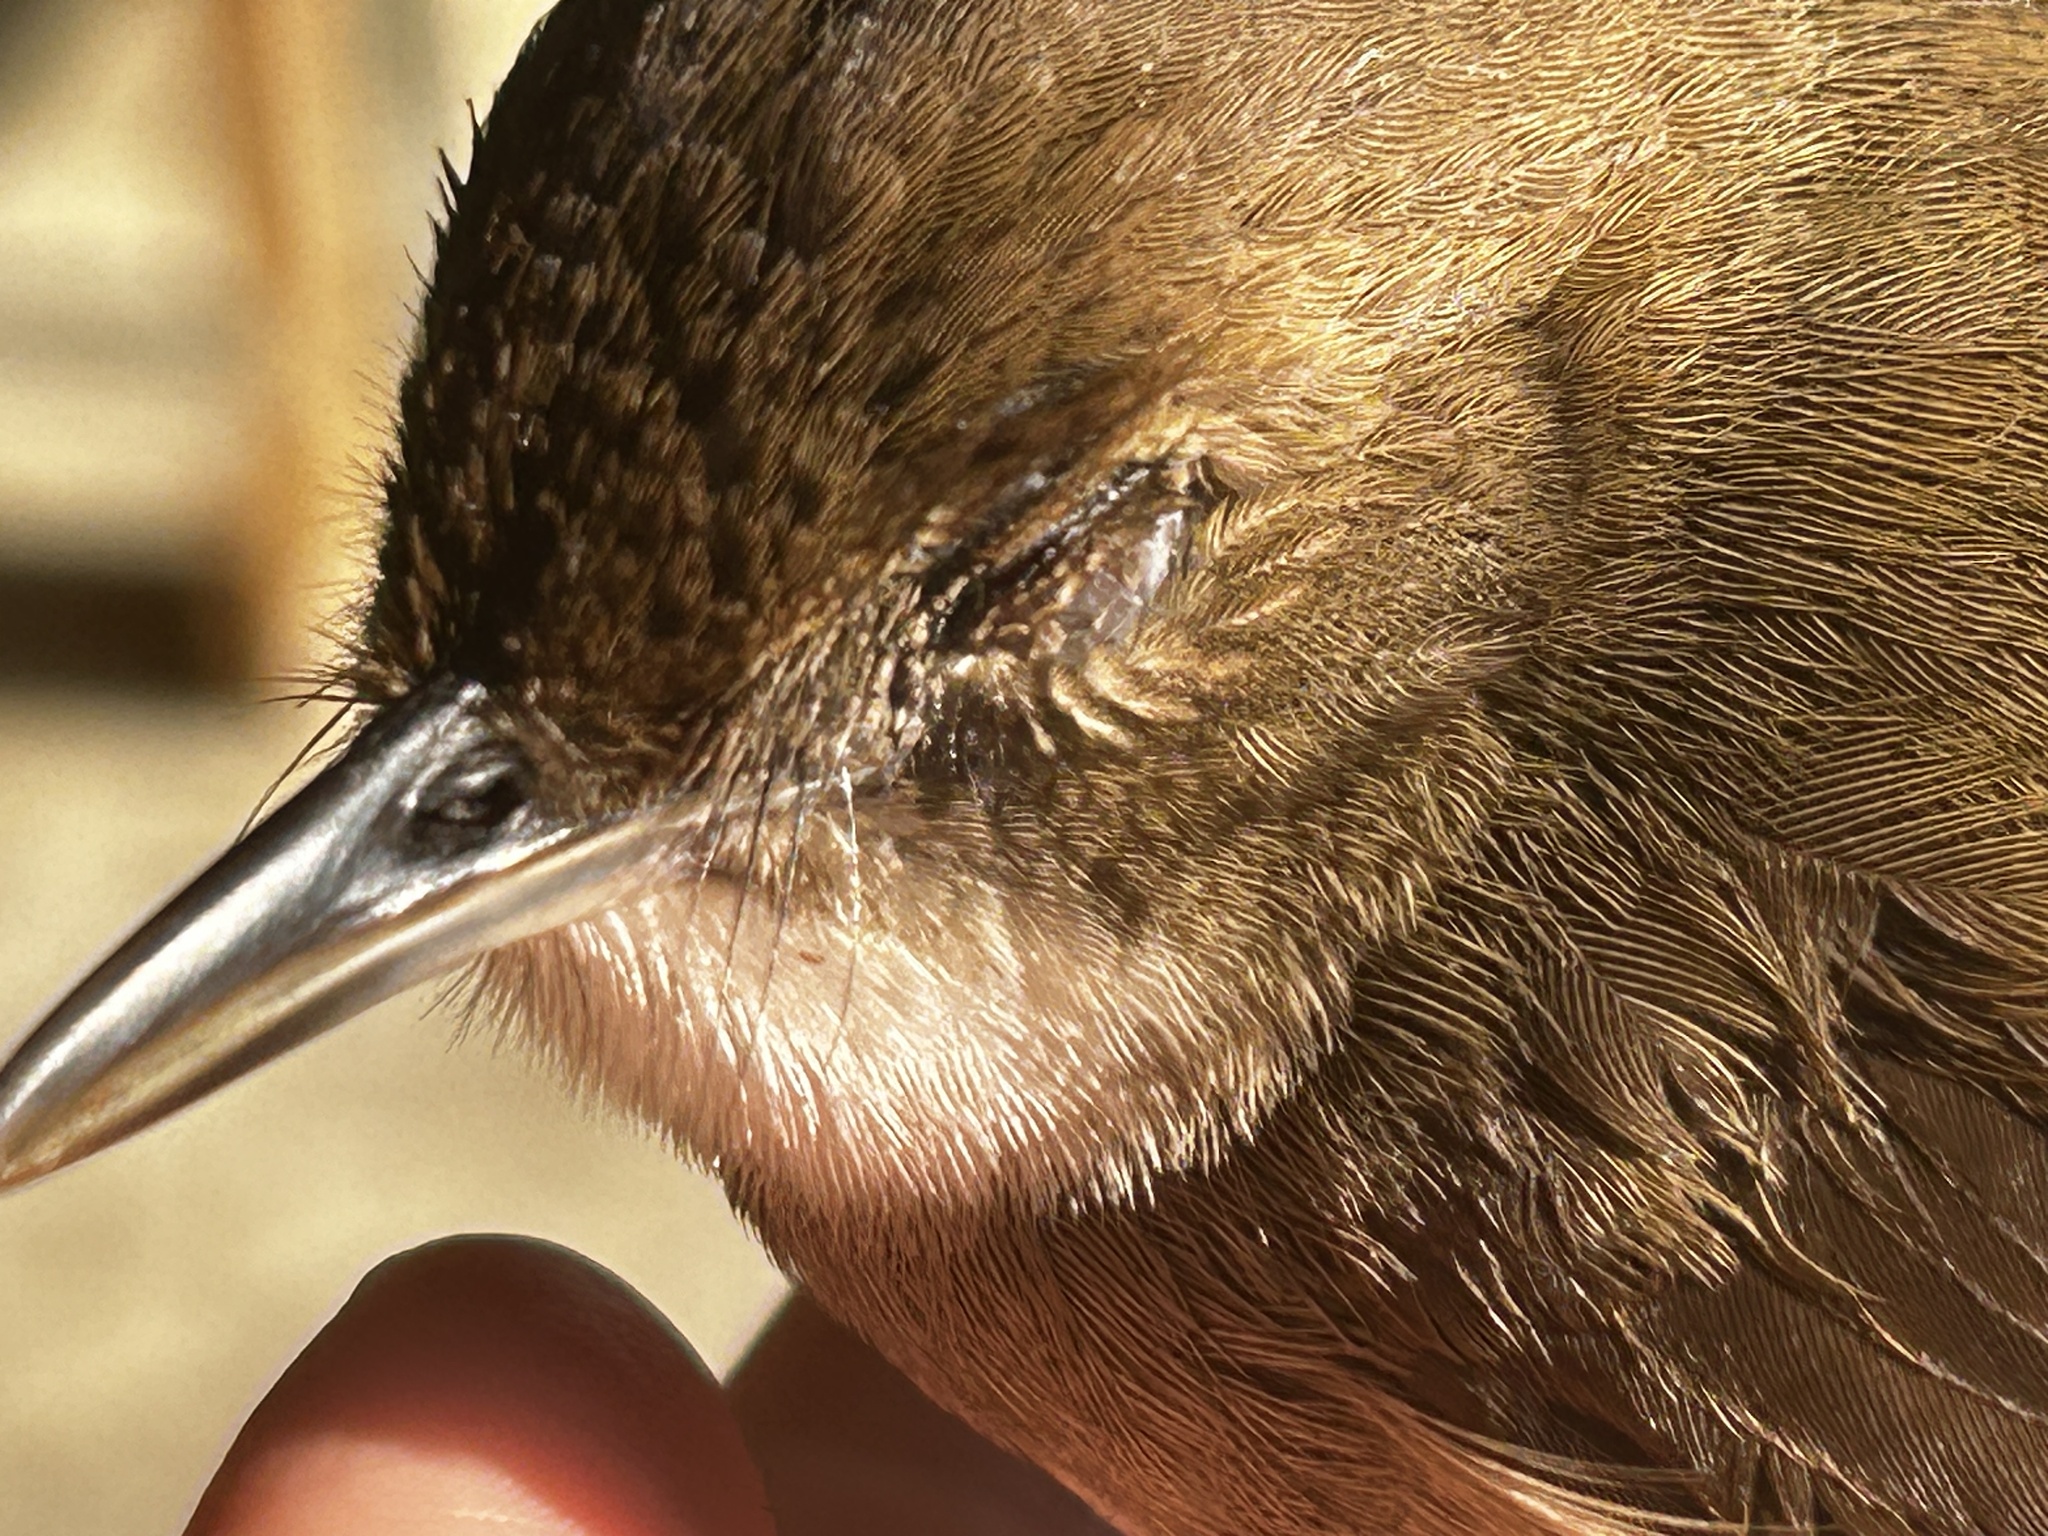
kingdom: Animalia
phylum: Chordata
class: Aves
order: Passeriformes
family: Pycnonotidae
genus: Phyllastrephus
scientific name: Phyllastrephus terrestris
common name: Terrestrial brownbul
